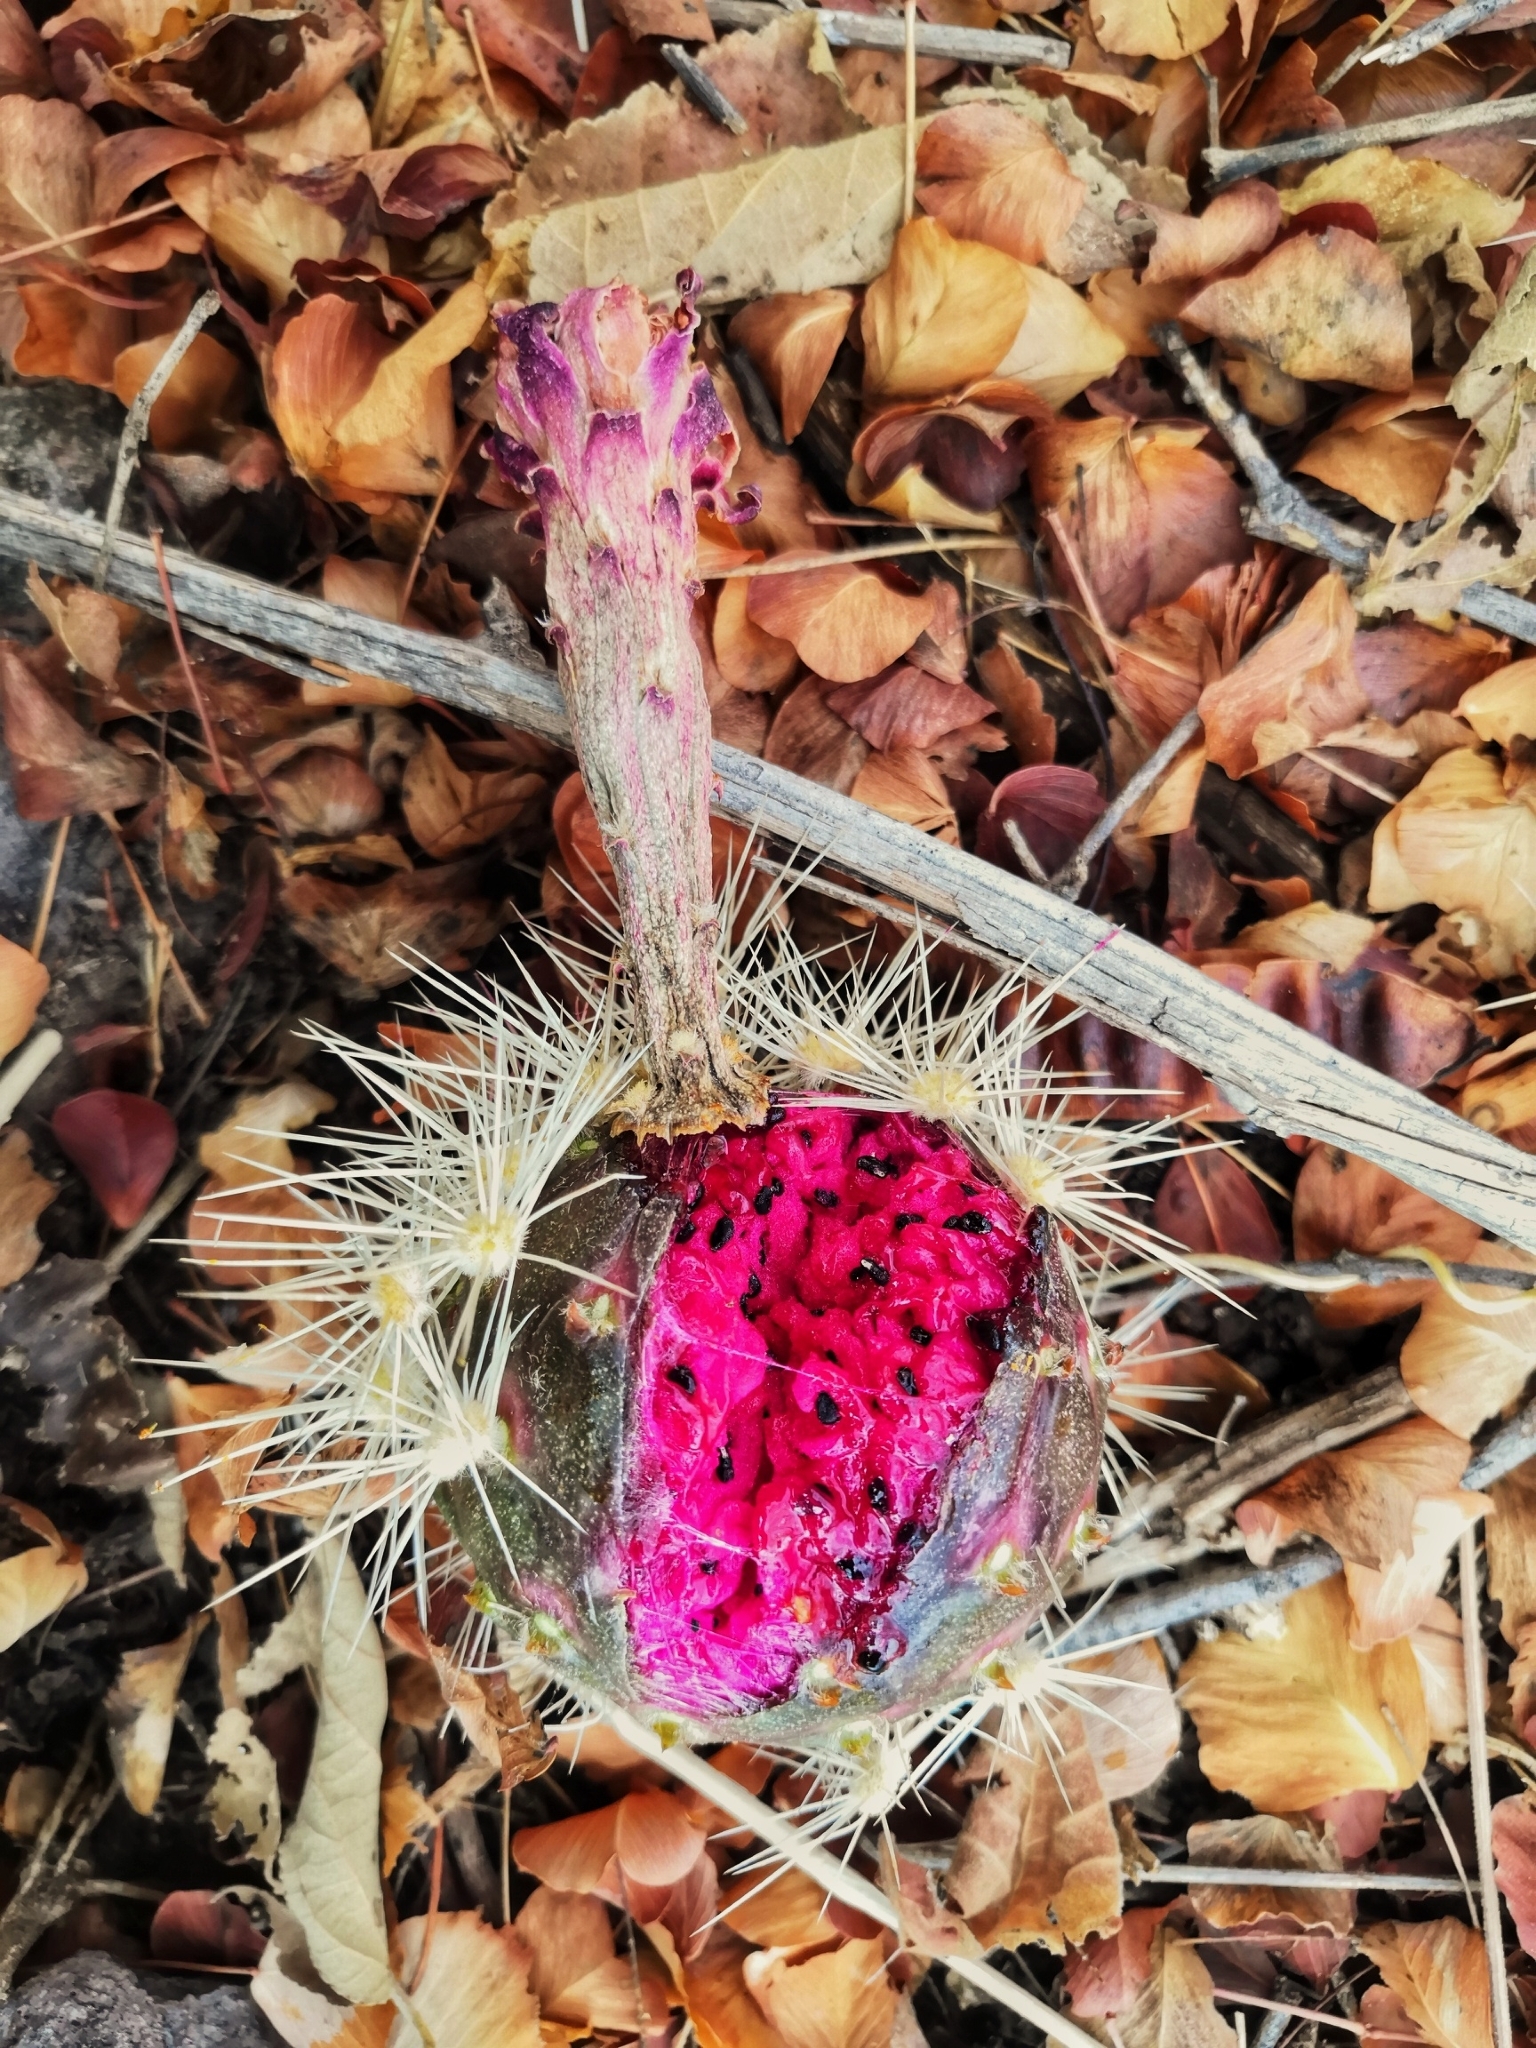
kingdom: Plantae
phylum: Tracheophyta
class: Magnoliopsida
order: Caryophyllales
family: Cactaceae
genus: Stenocereus
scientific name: Stenocereus queretaroensis
